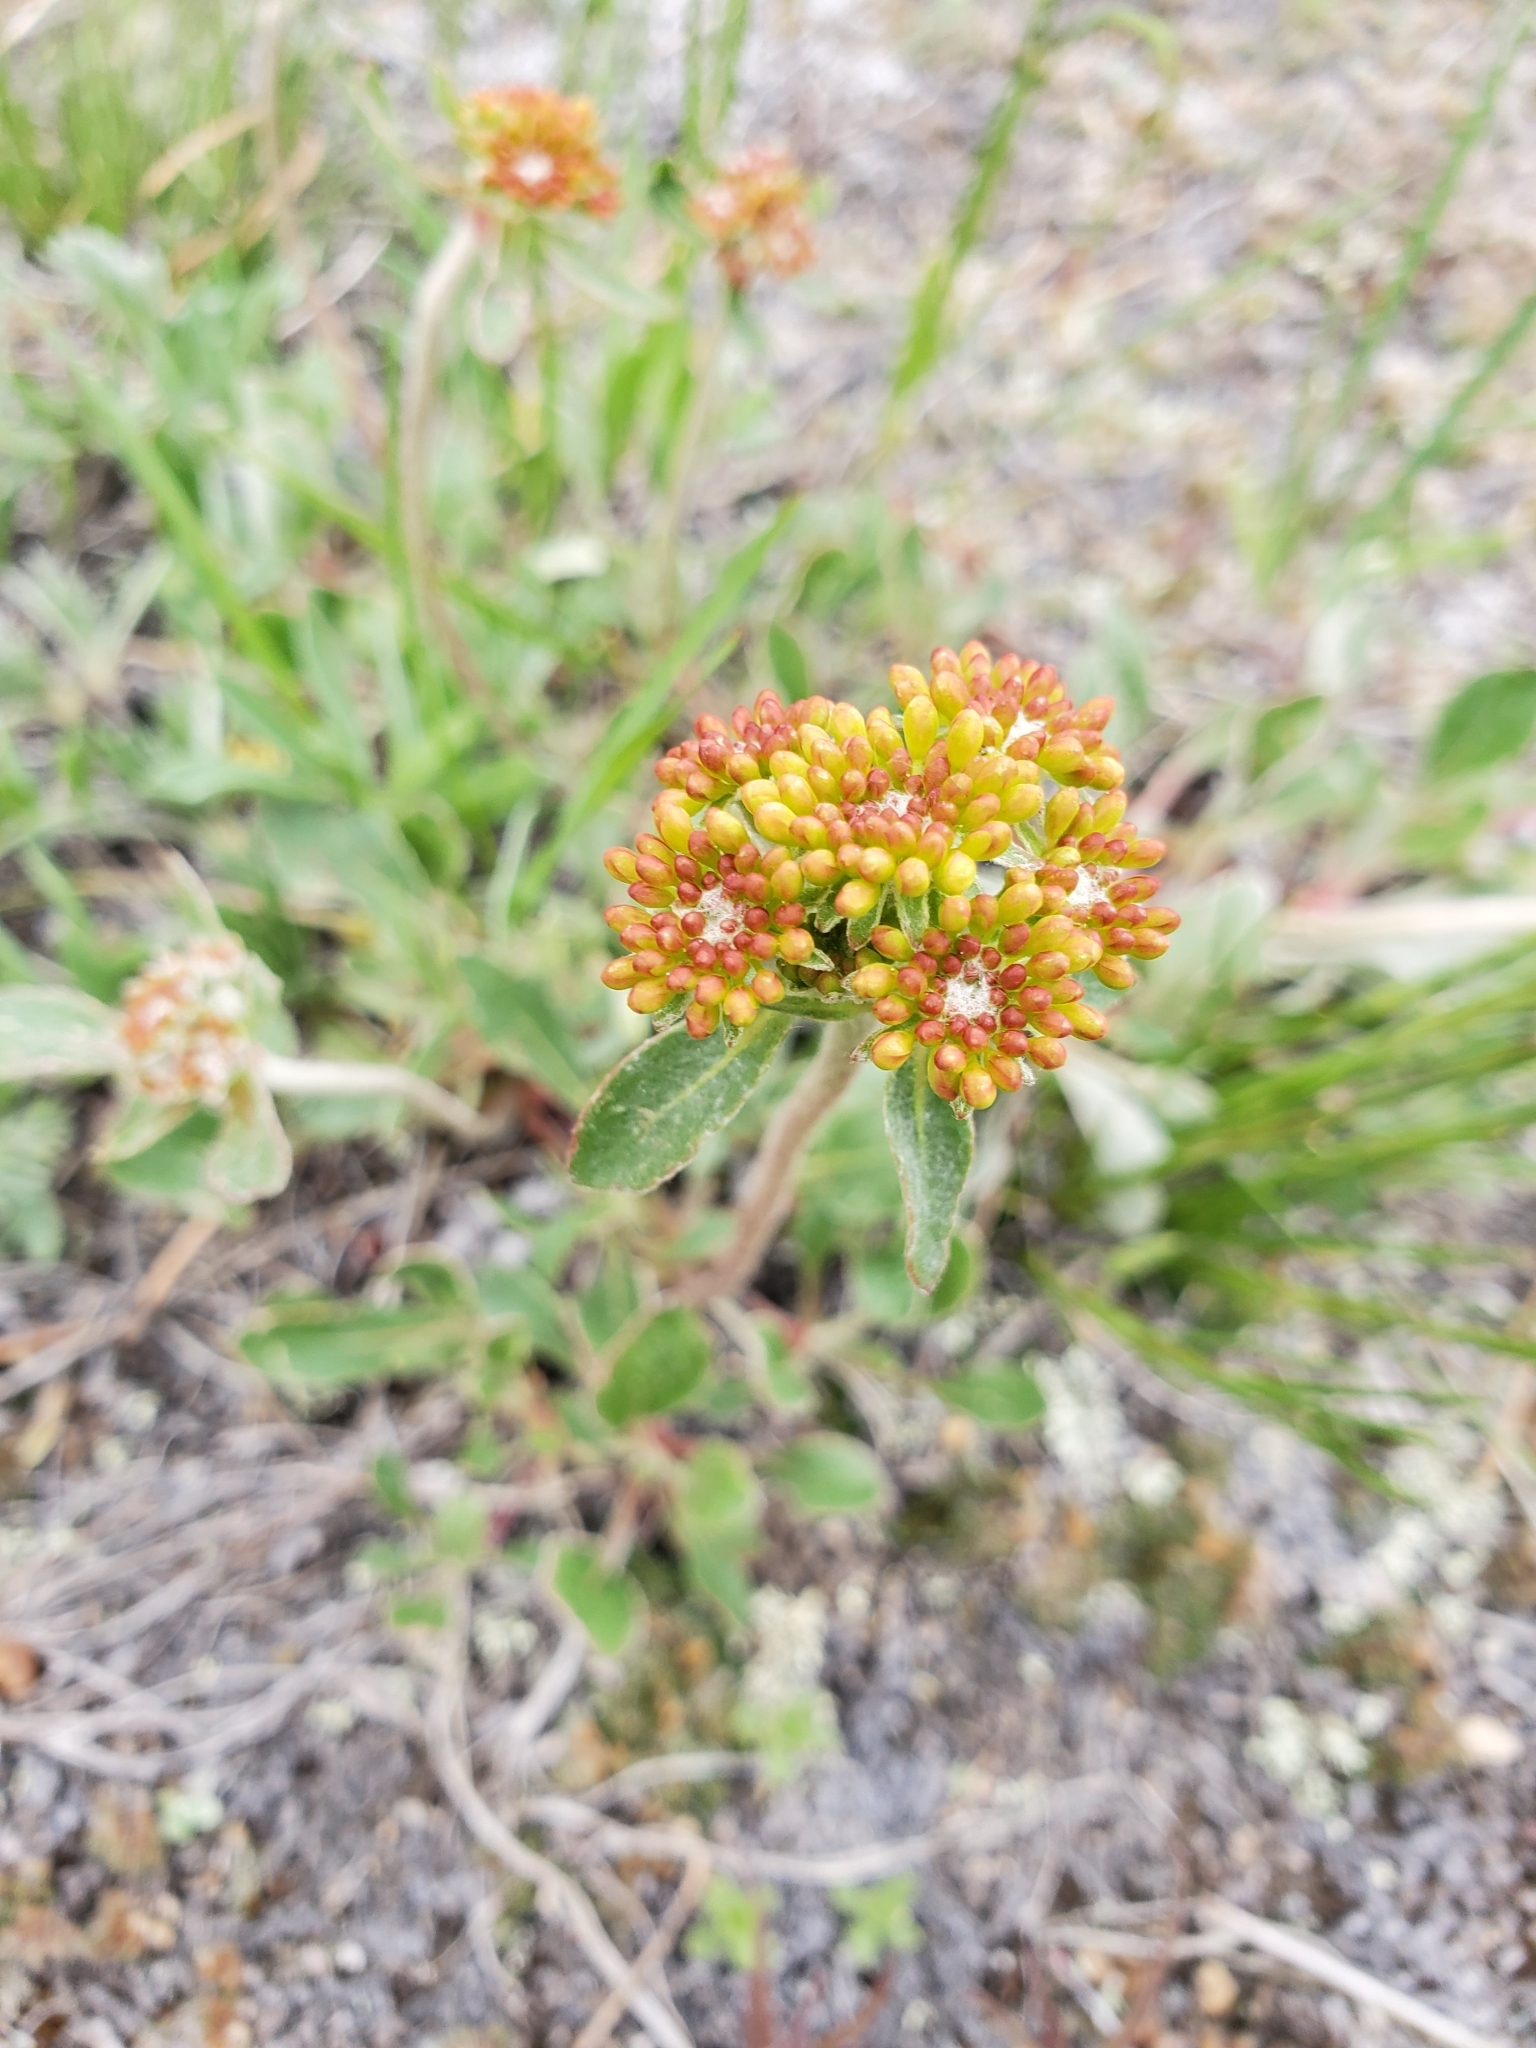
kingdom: Plantae
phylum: Tracheophyta
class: Magnoliopsida
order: Caryophyllales
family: Polygonaceae
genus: Eriogonum
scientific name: Eriogonum umbellatum
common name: Sulfur-buckwheat
